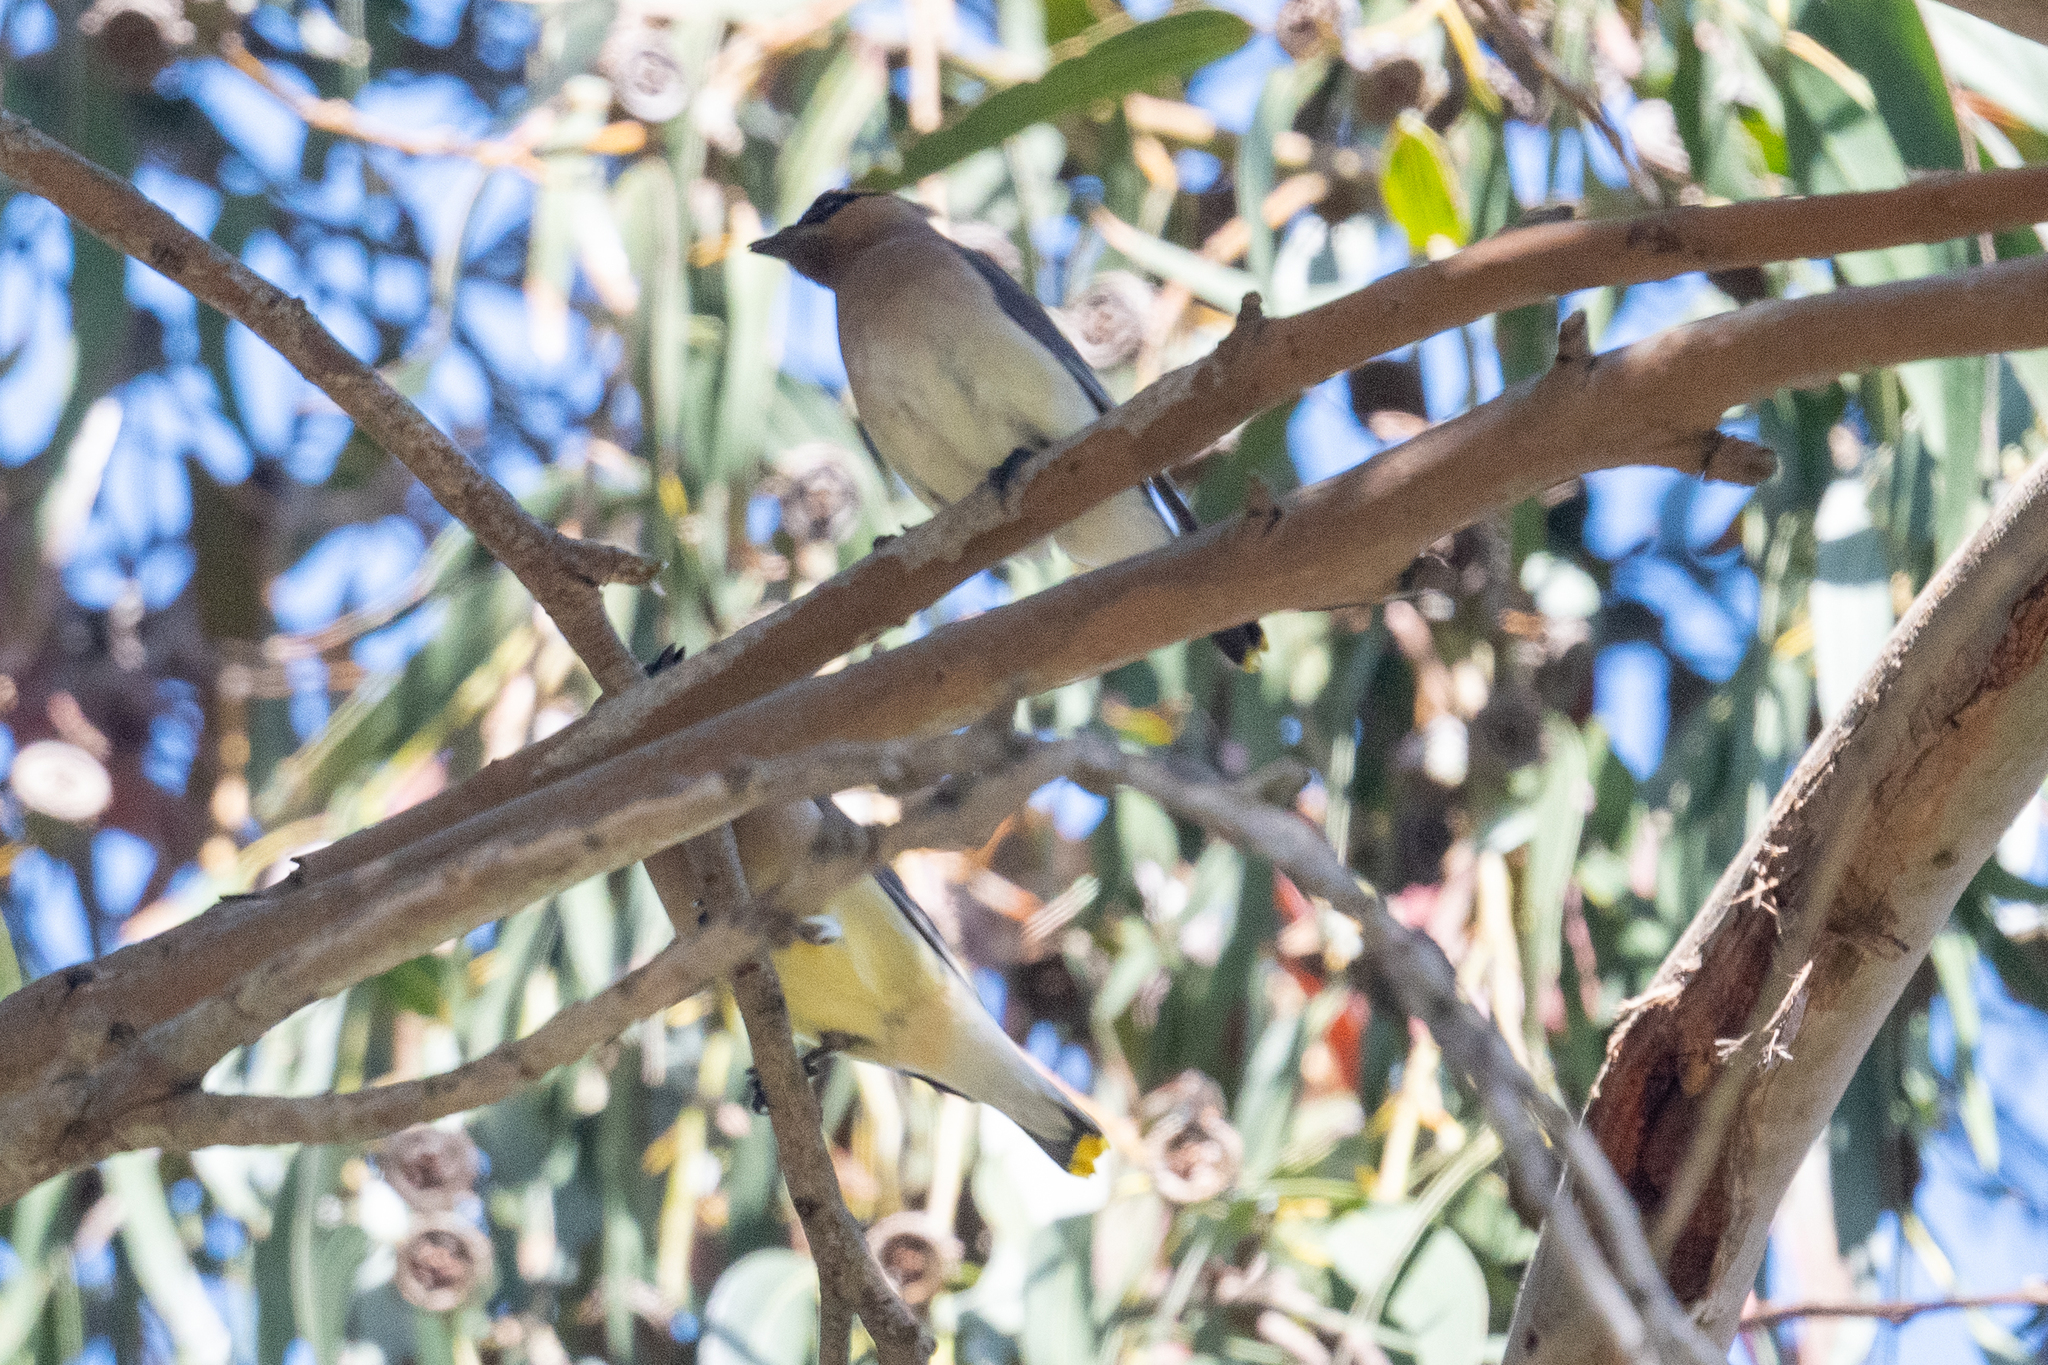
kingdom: Animalia
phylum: Chordata
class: Aves
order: Passeriformes
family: Bombycillidae
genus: Bombycilla
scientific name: Bombycilla cedrorum
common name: Cedar waxwing
